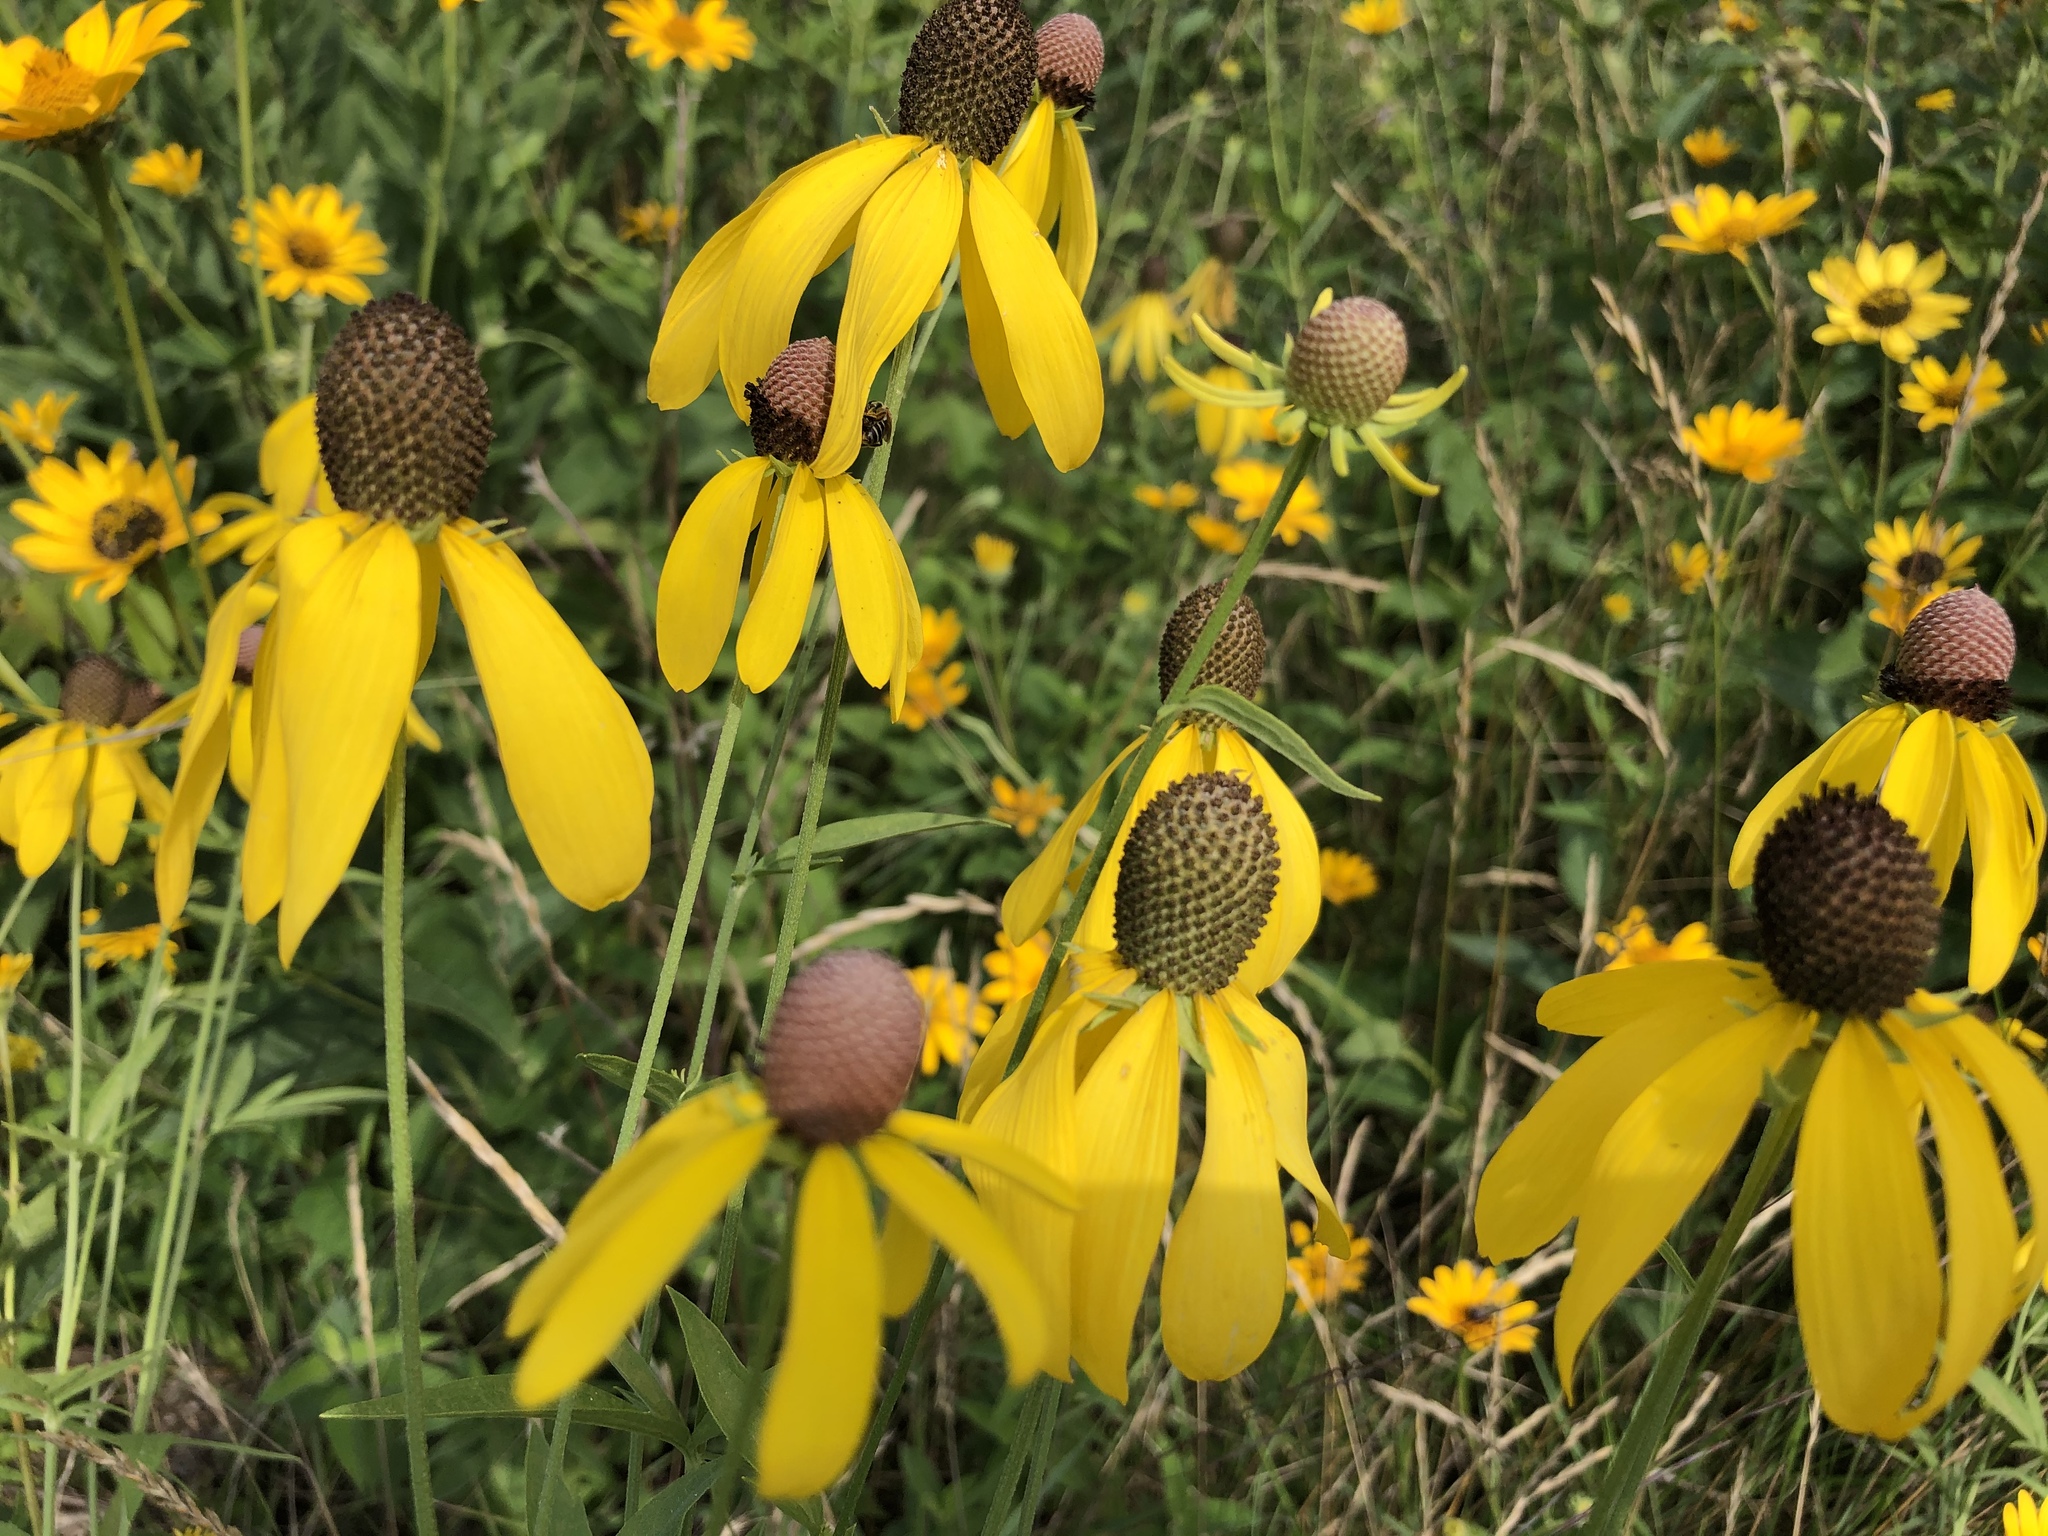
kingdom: Plantae
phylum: Tracheophyta
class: Magnoliopsida
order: Asterales
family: Asteraceae
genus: Ratibida
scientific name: Ratibida pinnata
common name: Drooping prairie-coneflower
